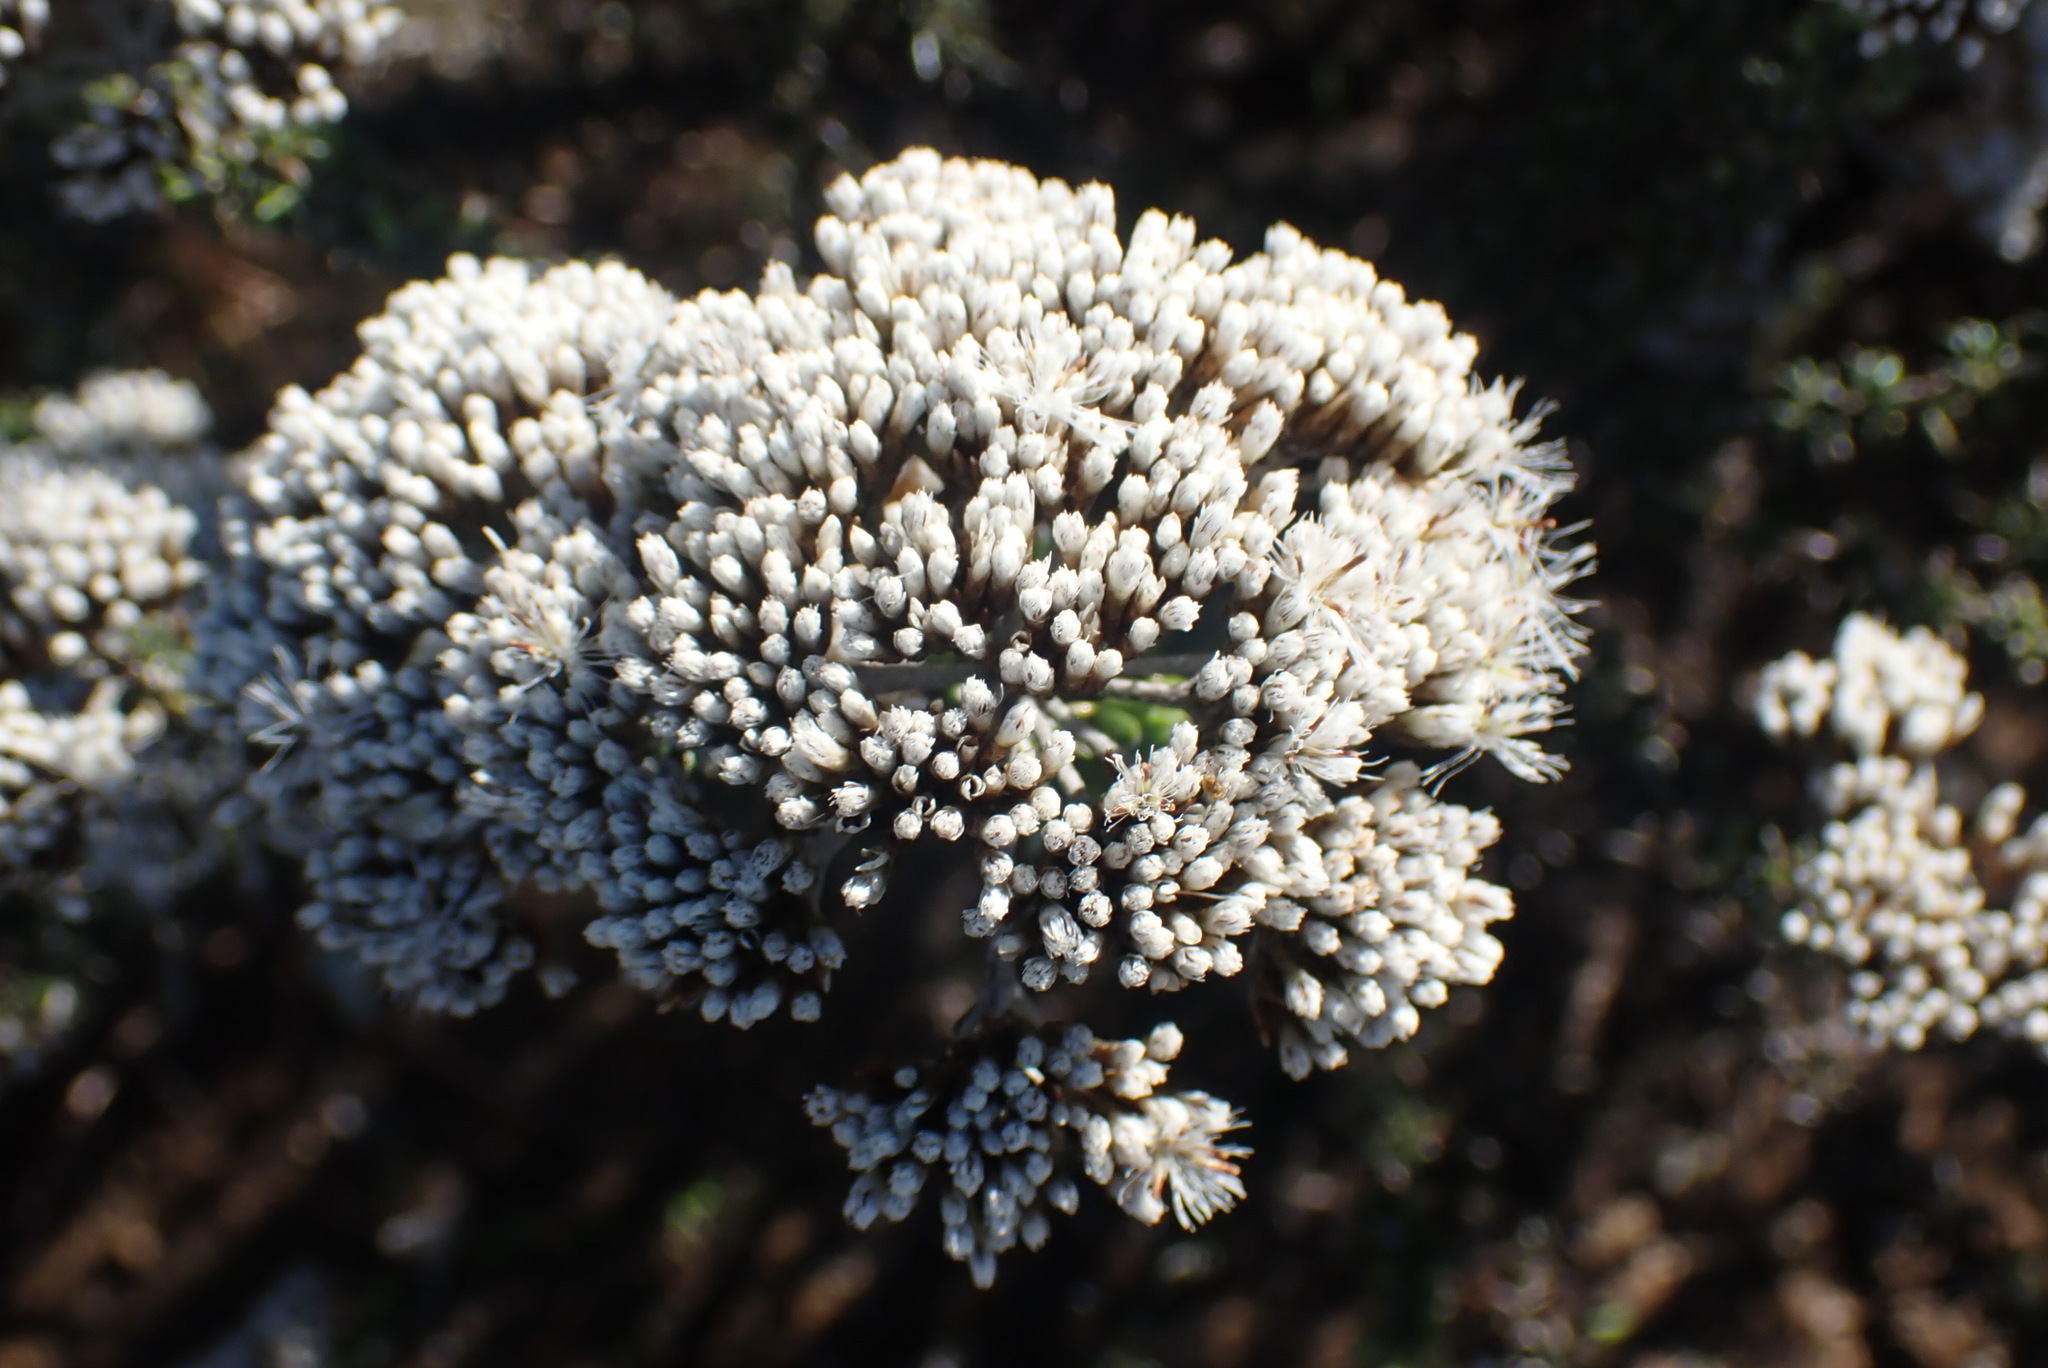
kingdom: Plantae
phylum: Tracheophyta
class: Magnoliopsida
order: Asterales
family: Asteraceae
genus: Metalasia
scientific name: Metalasia muricata
